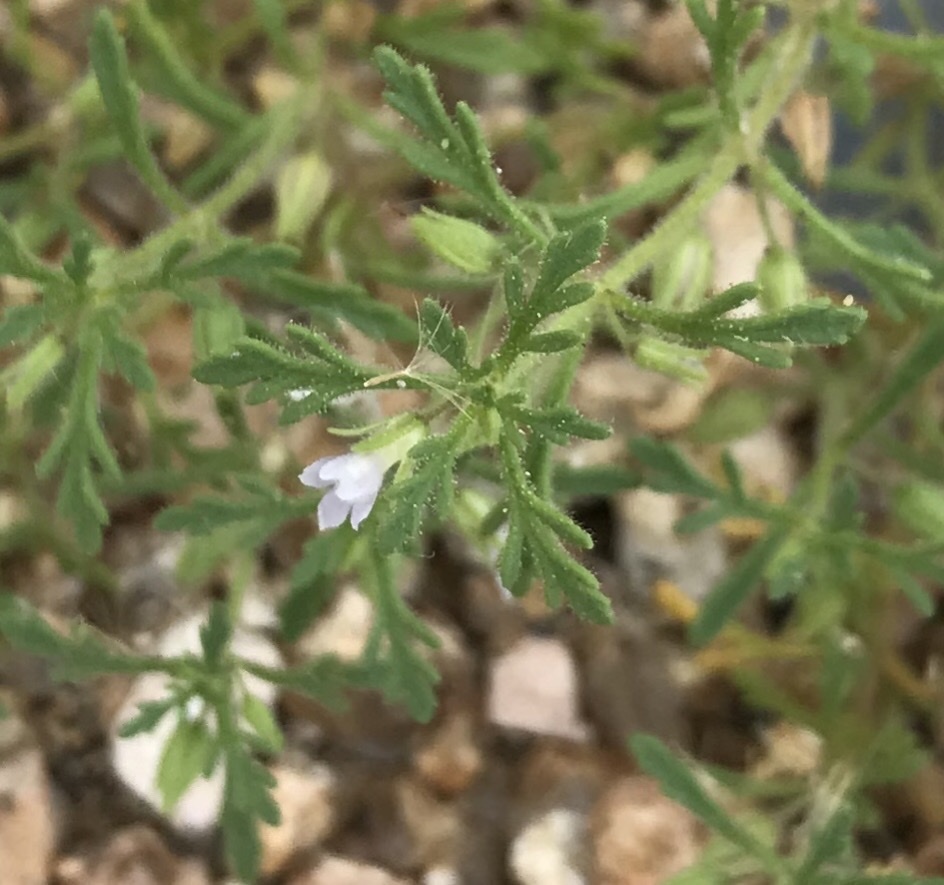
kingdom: Plantae
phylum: Tracheophyta
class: Magnoliopsida
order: Lamiales
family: Plantaginaceae
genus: Leucospora
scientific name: Leucospora multifida
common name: Narrow-leaf paleseed
